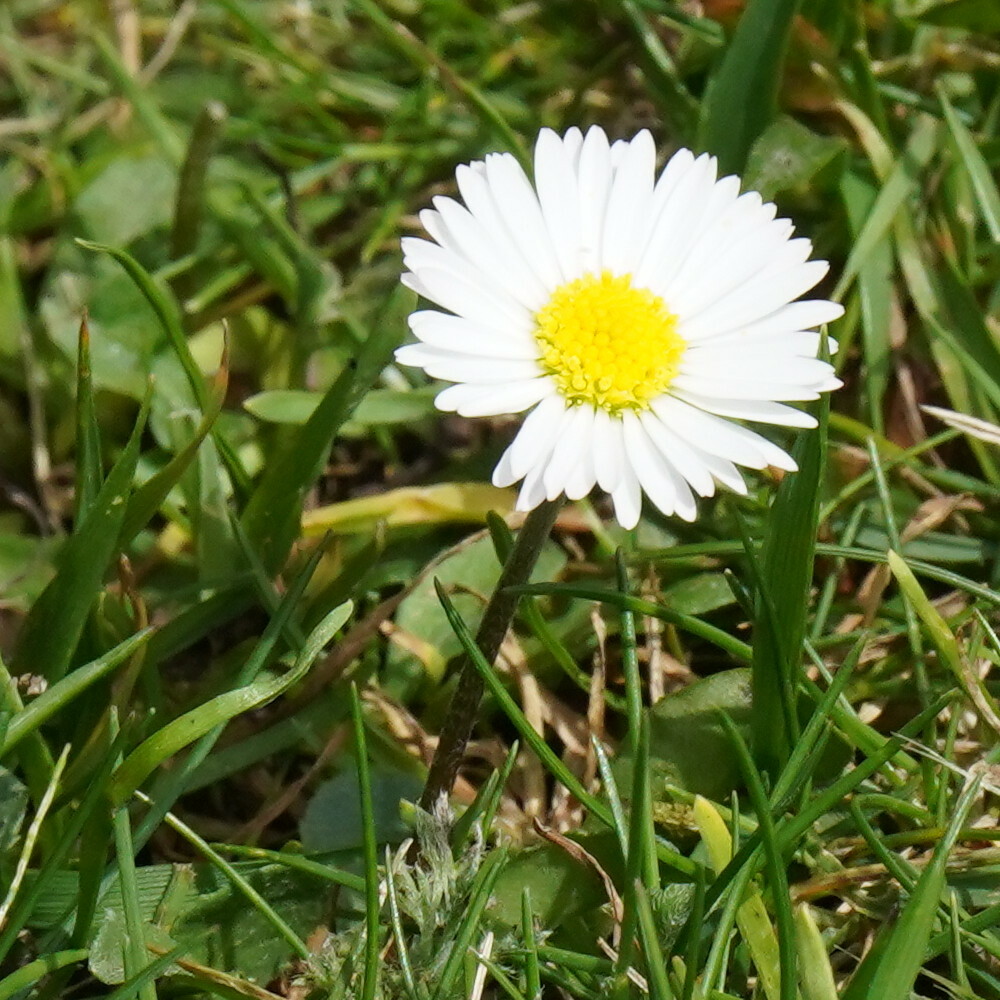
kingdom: Plantae
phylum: Tracheophyta
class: Magnoliopsida
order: Asterales
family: Asteraceae
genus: Bellis
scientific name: Bellis perennis
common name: Lawndaisy
